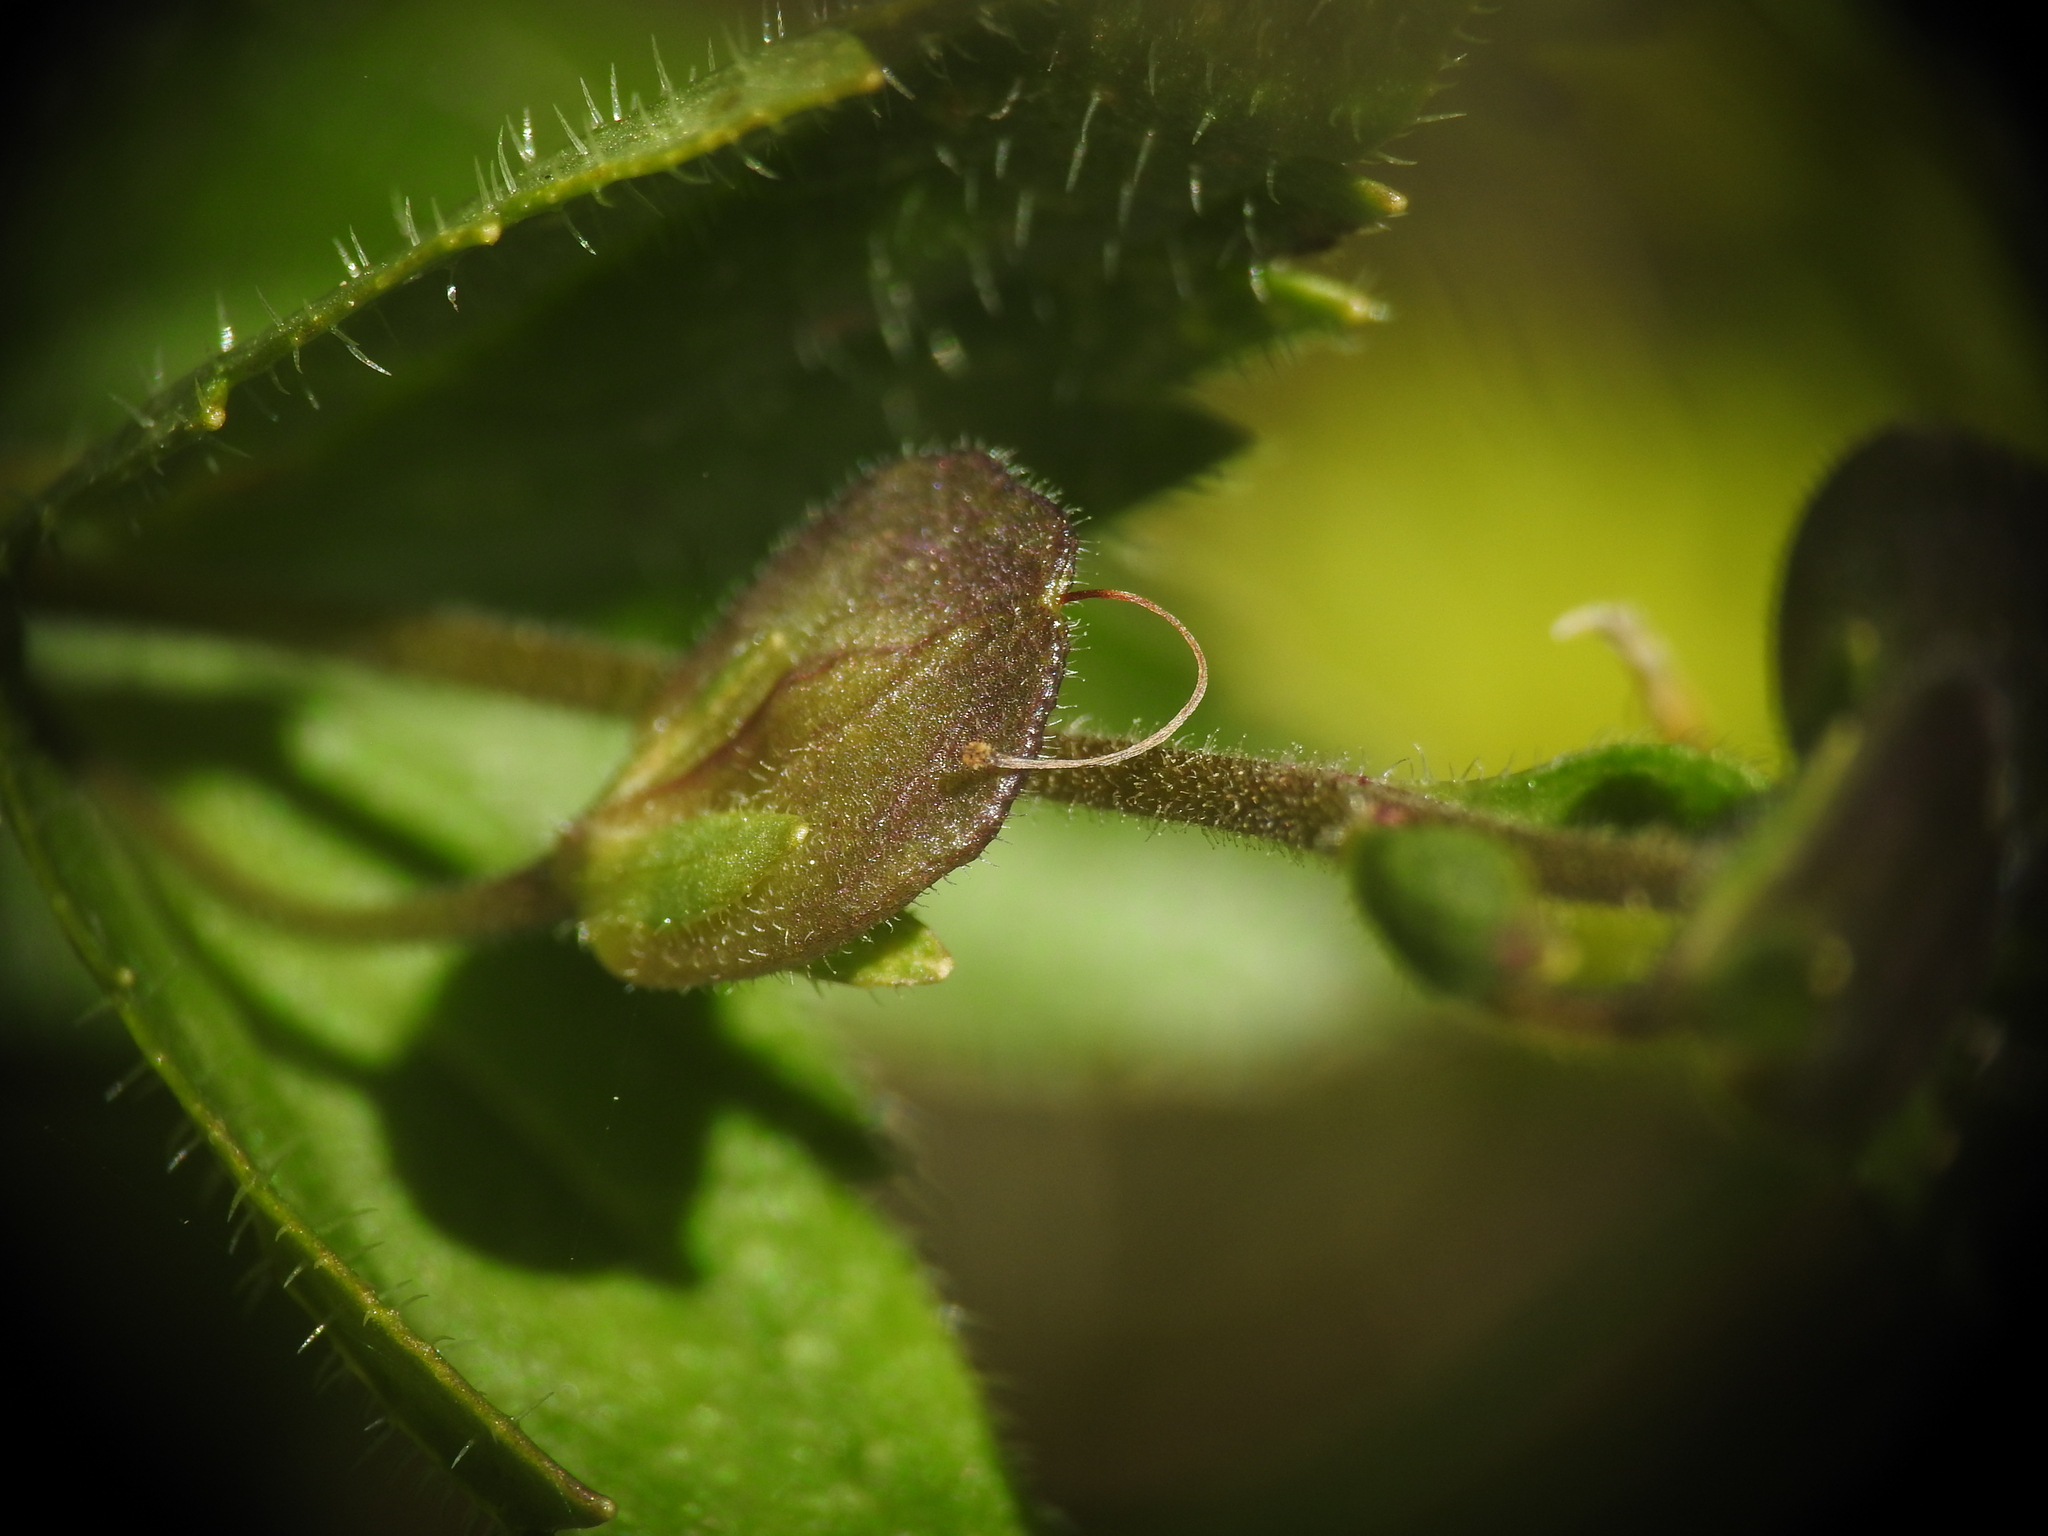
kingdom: Plantae
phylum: Tracheophyta
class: Magnoliopsida
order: Lamiales
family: Plantaginaceae
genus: Veronica
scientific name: Veronica ponae
